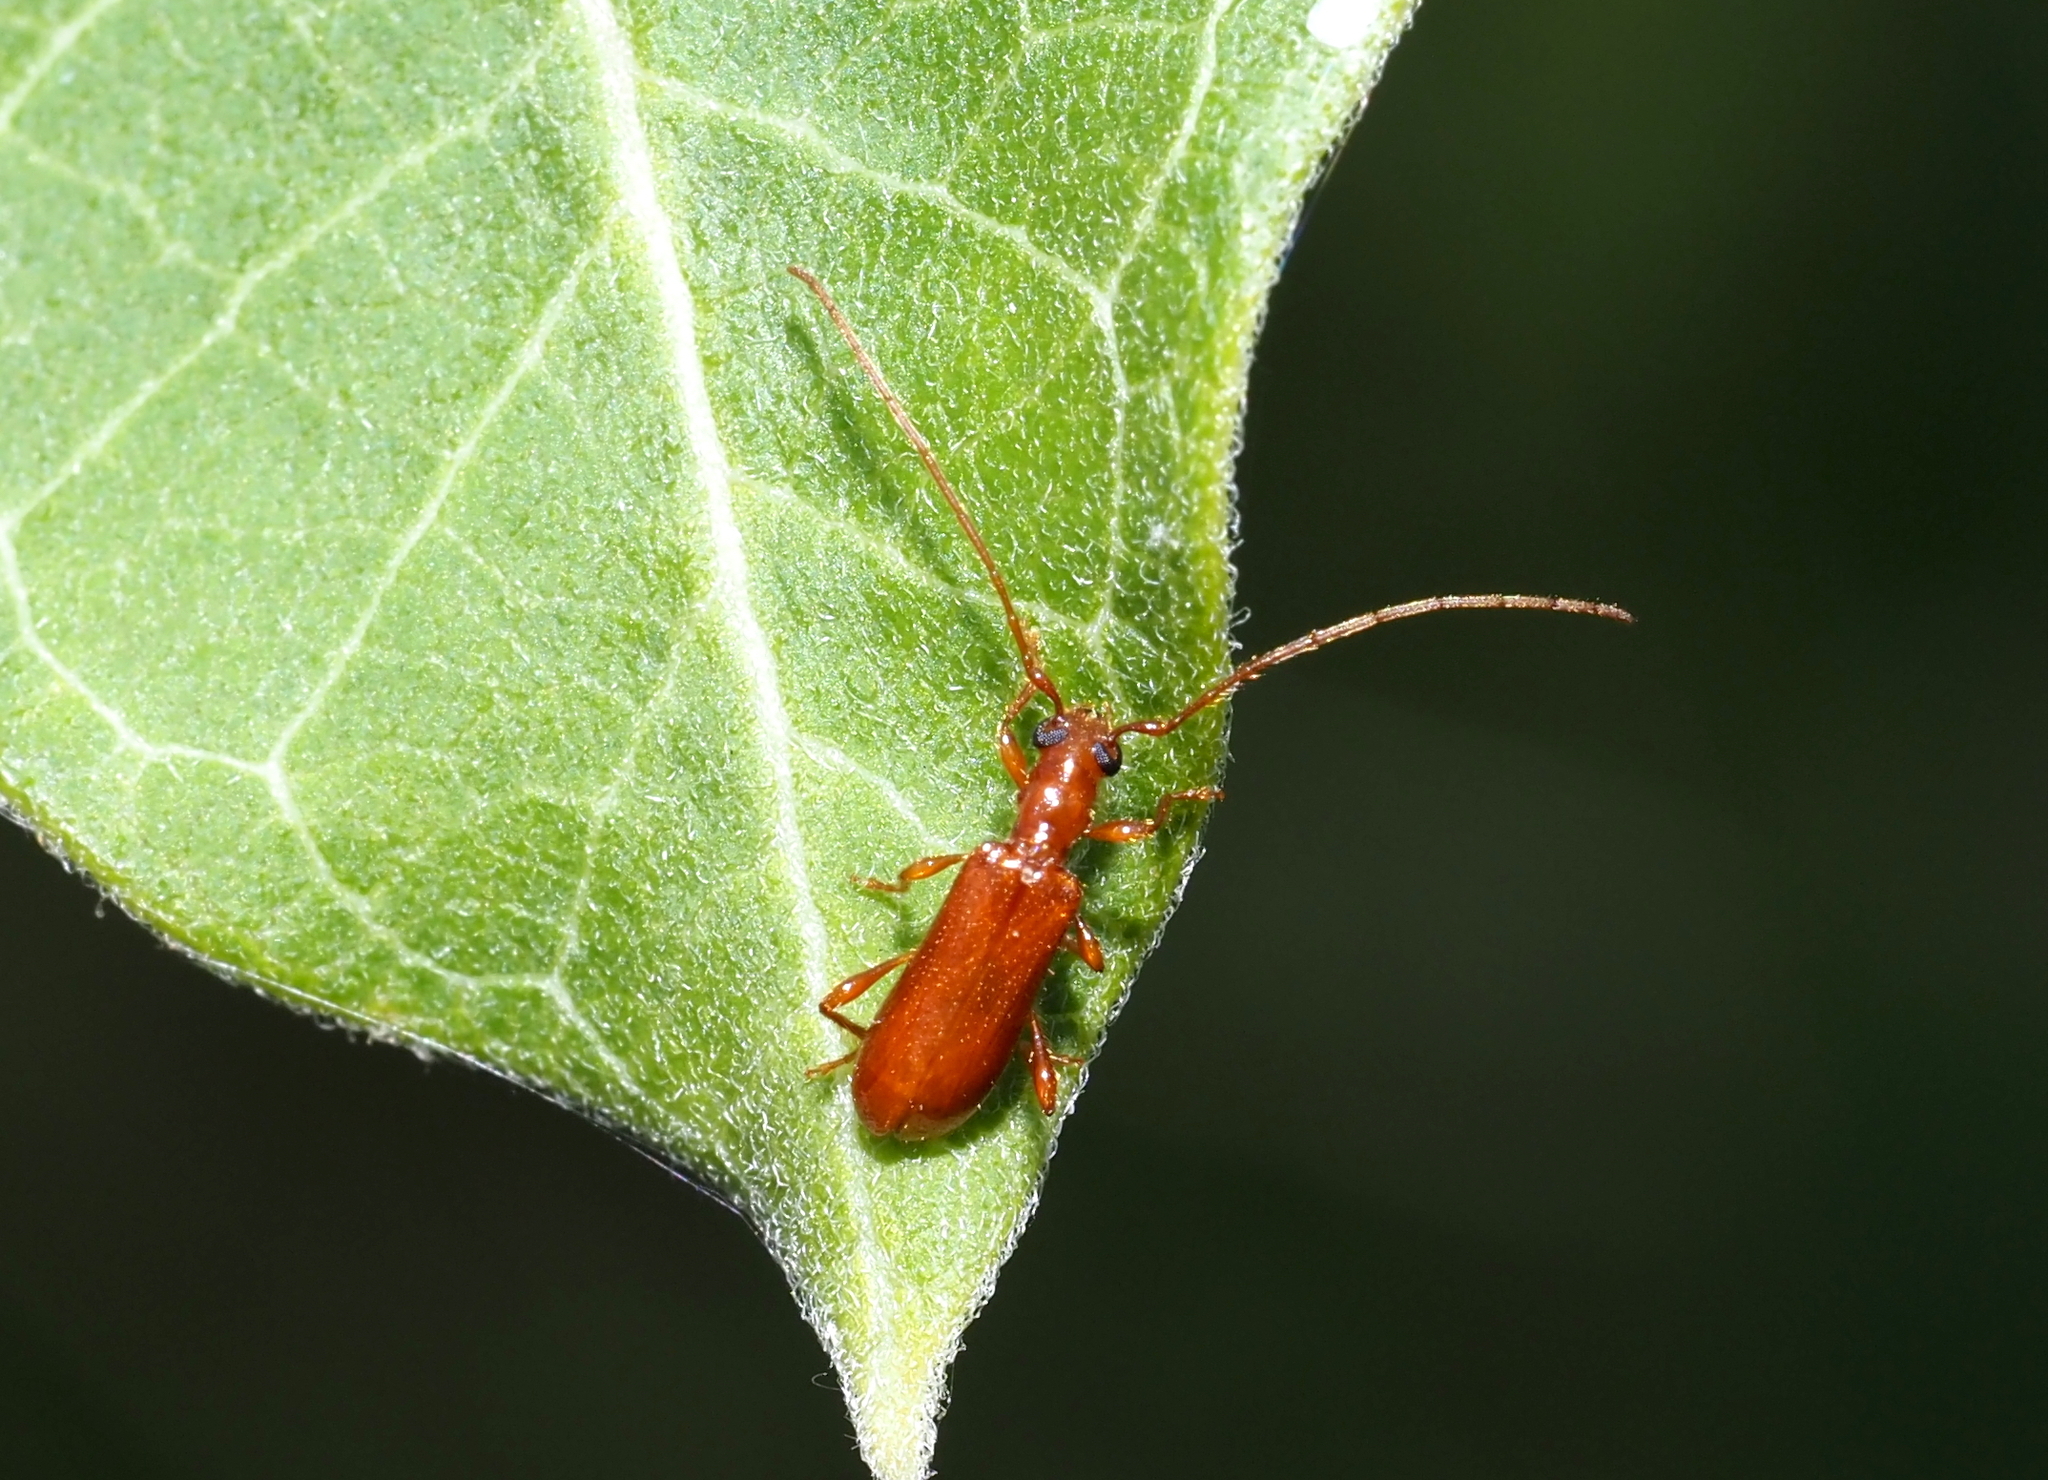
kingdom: Animalia
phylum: Arthropoda
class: Insecta
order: Coleoptera
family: Cerambycidae
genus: Obrium
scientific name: Obrium rufulum
